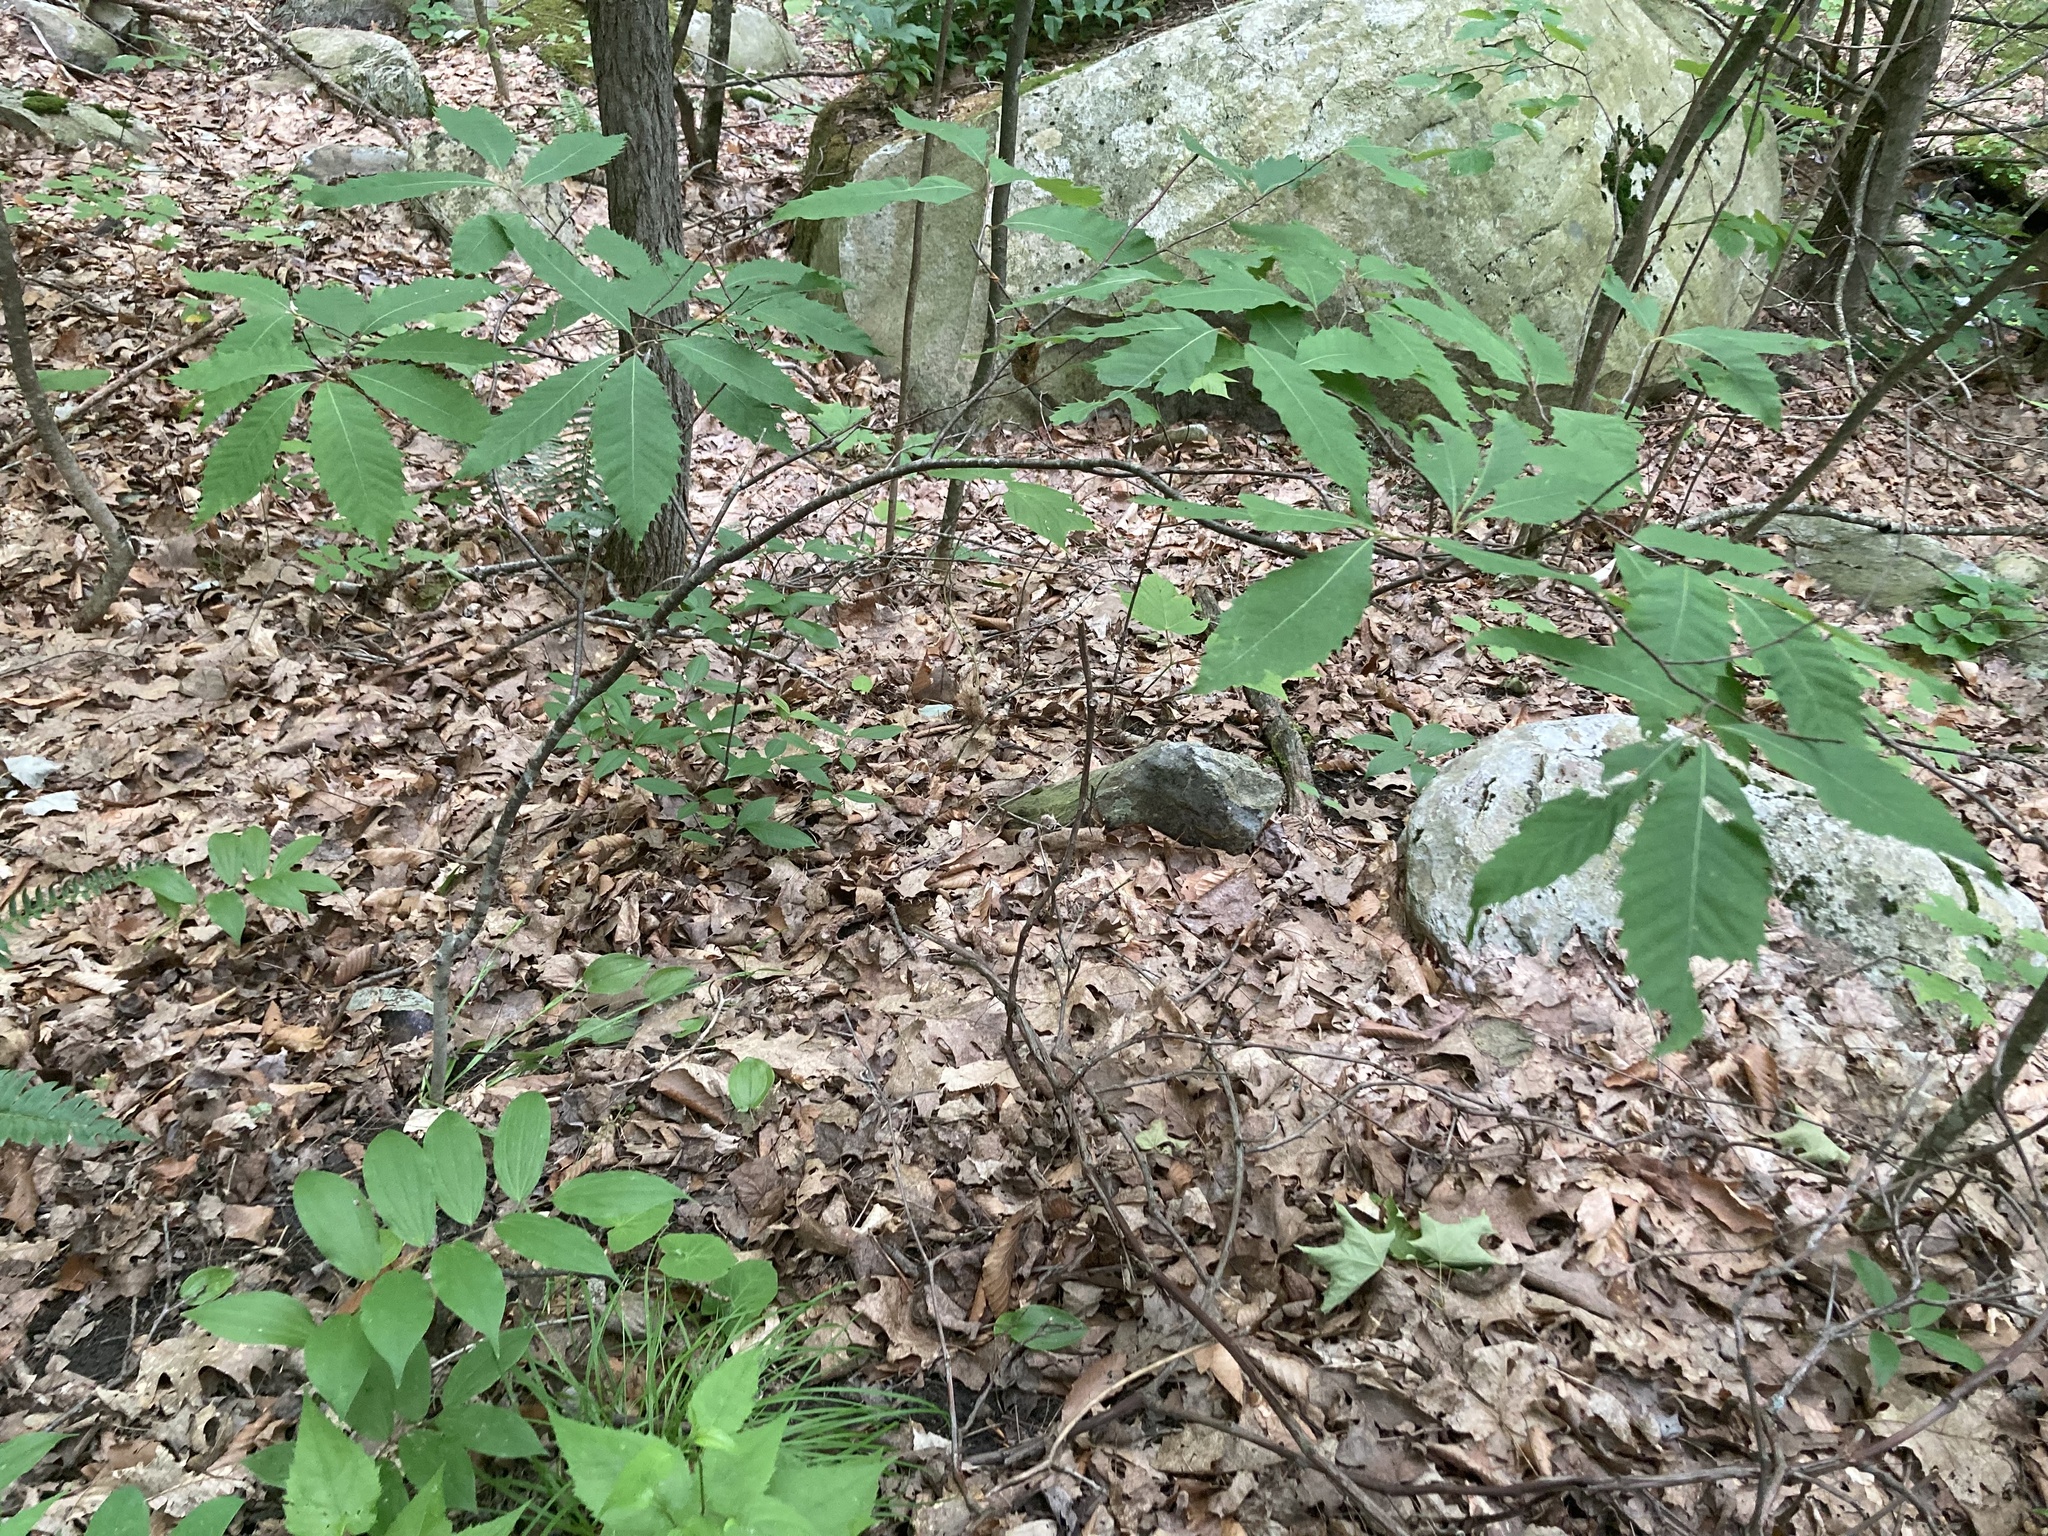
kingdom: Plantae
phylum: Tracheophyta
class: Magnoliopsida
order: Fagales
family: Fagaceae
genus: Castanea
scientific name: Castanea dentata
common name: American chestnut
